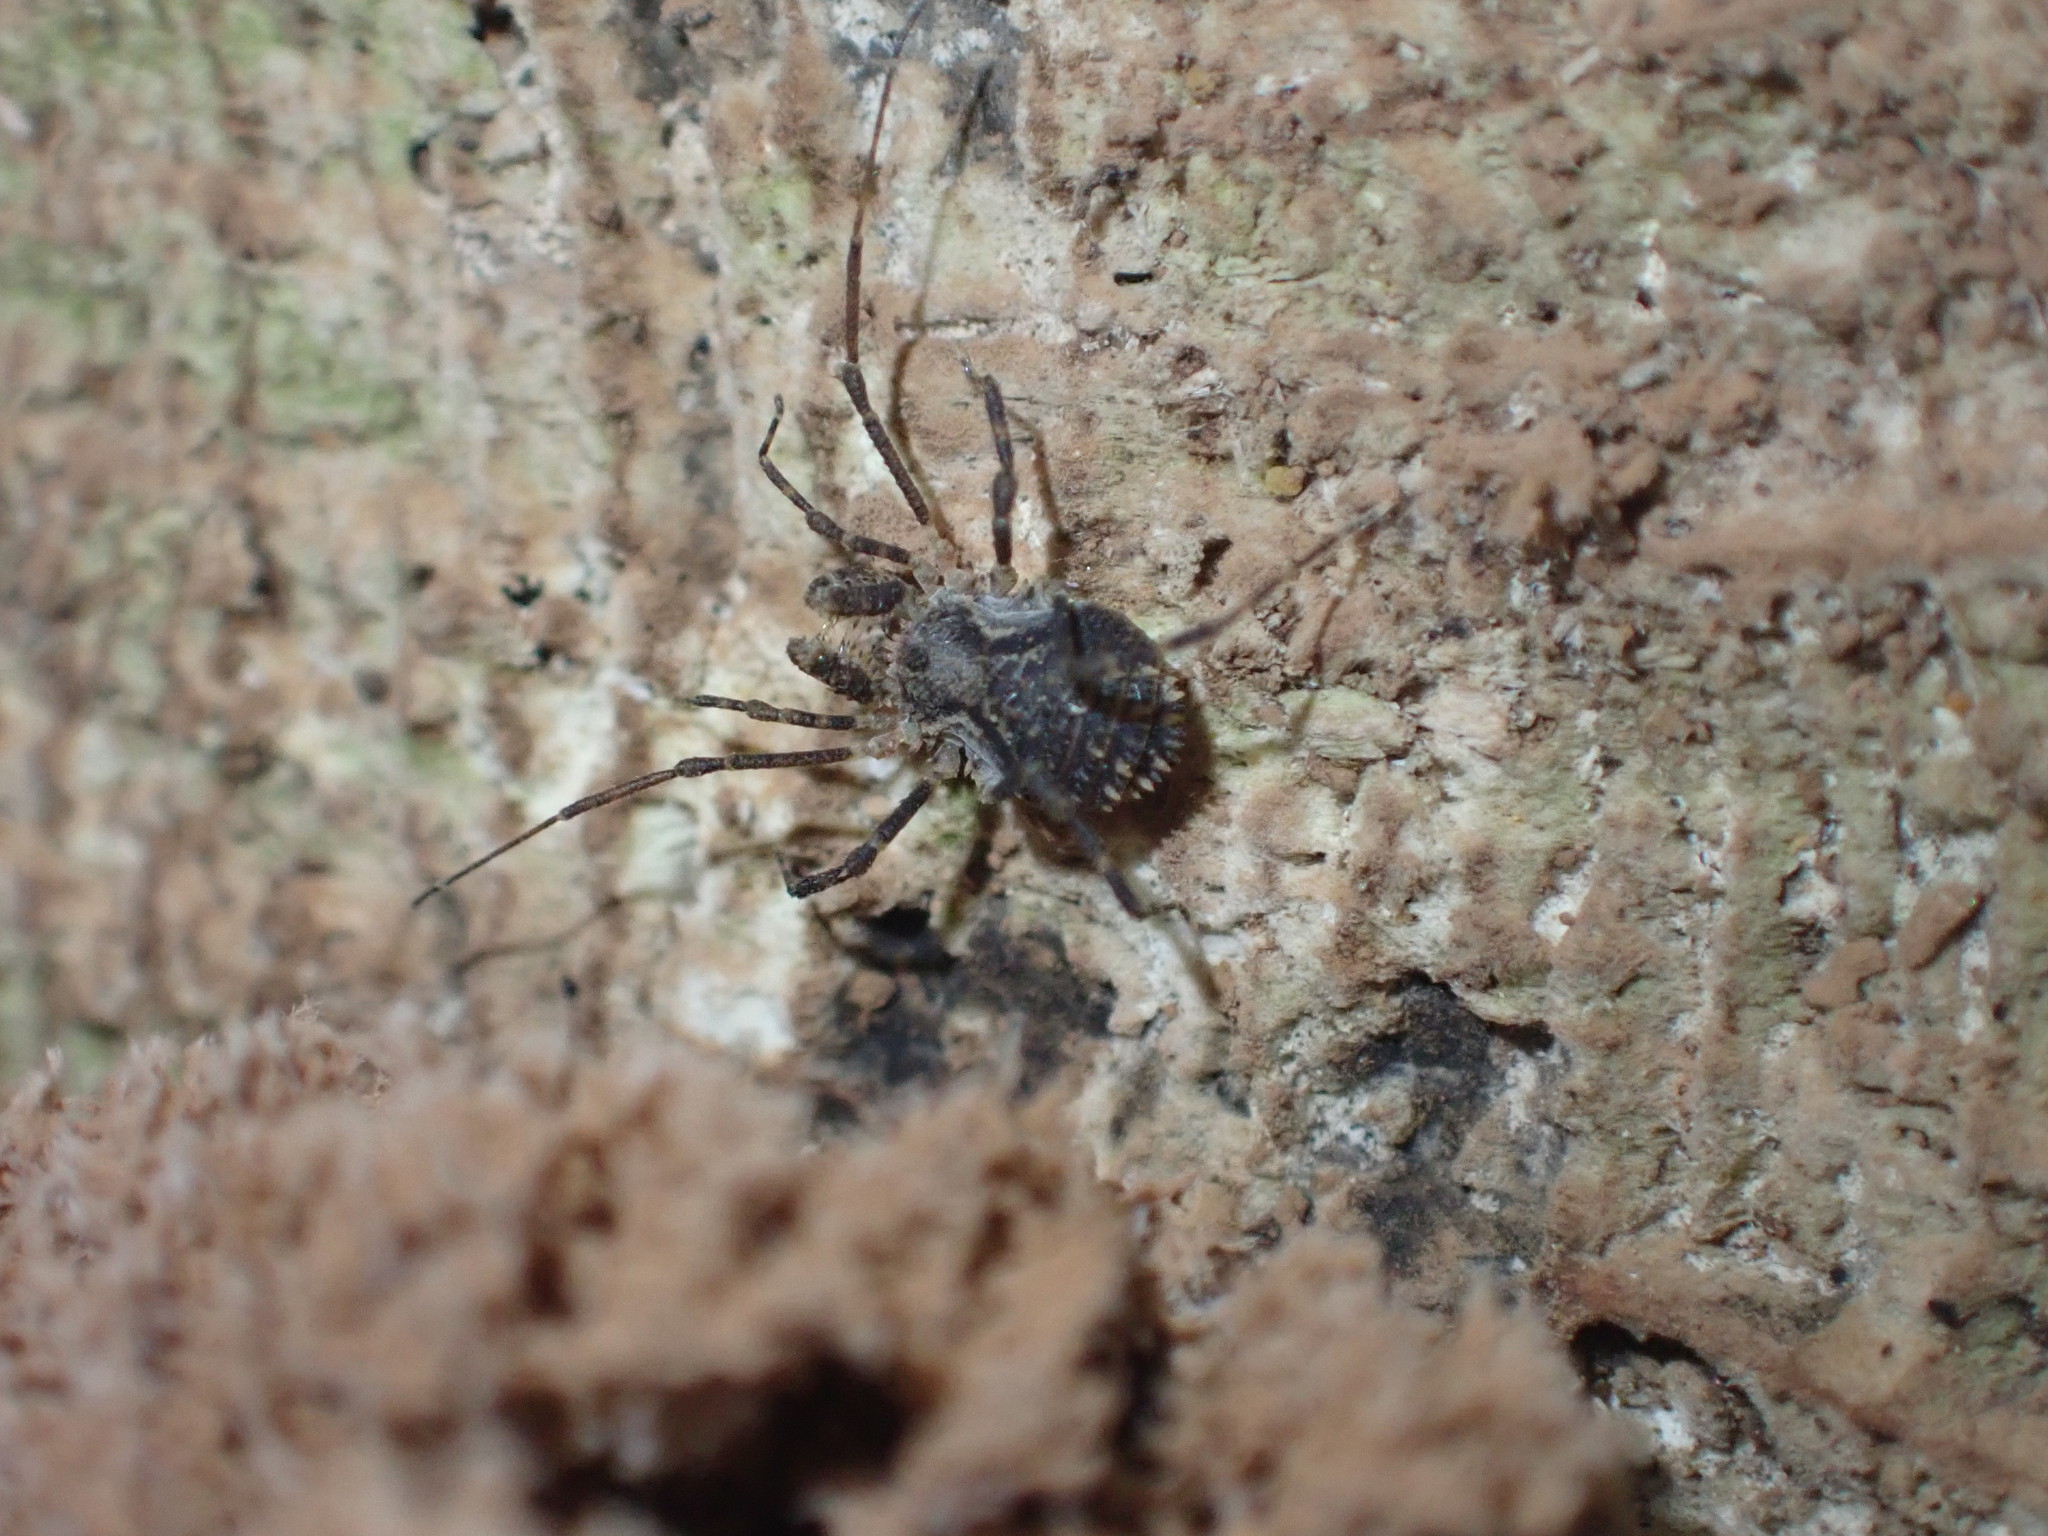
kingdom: Animalia
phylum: Arthropoda
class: Arachnida
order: Opiliones
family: Triaenonychidae
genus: Algidia
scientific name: Algidia cuspidata
